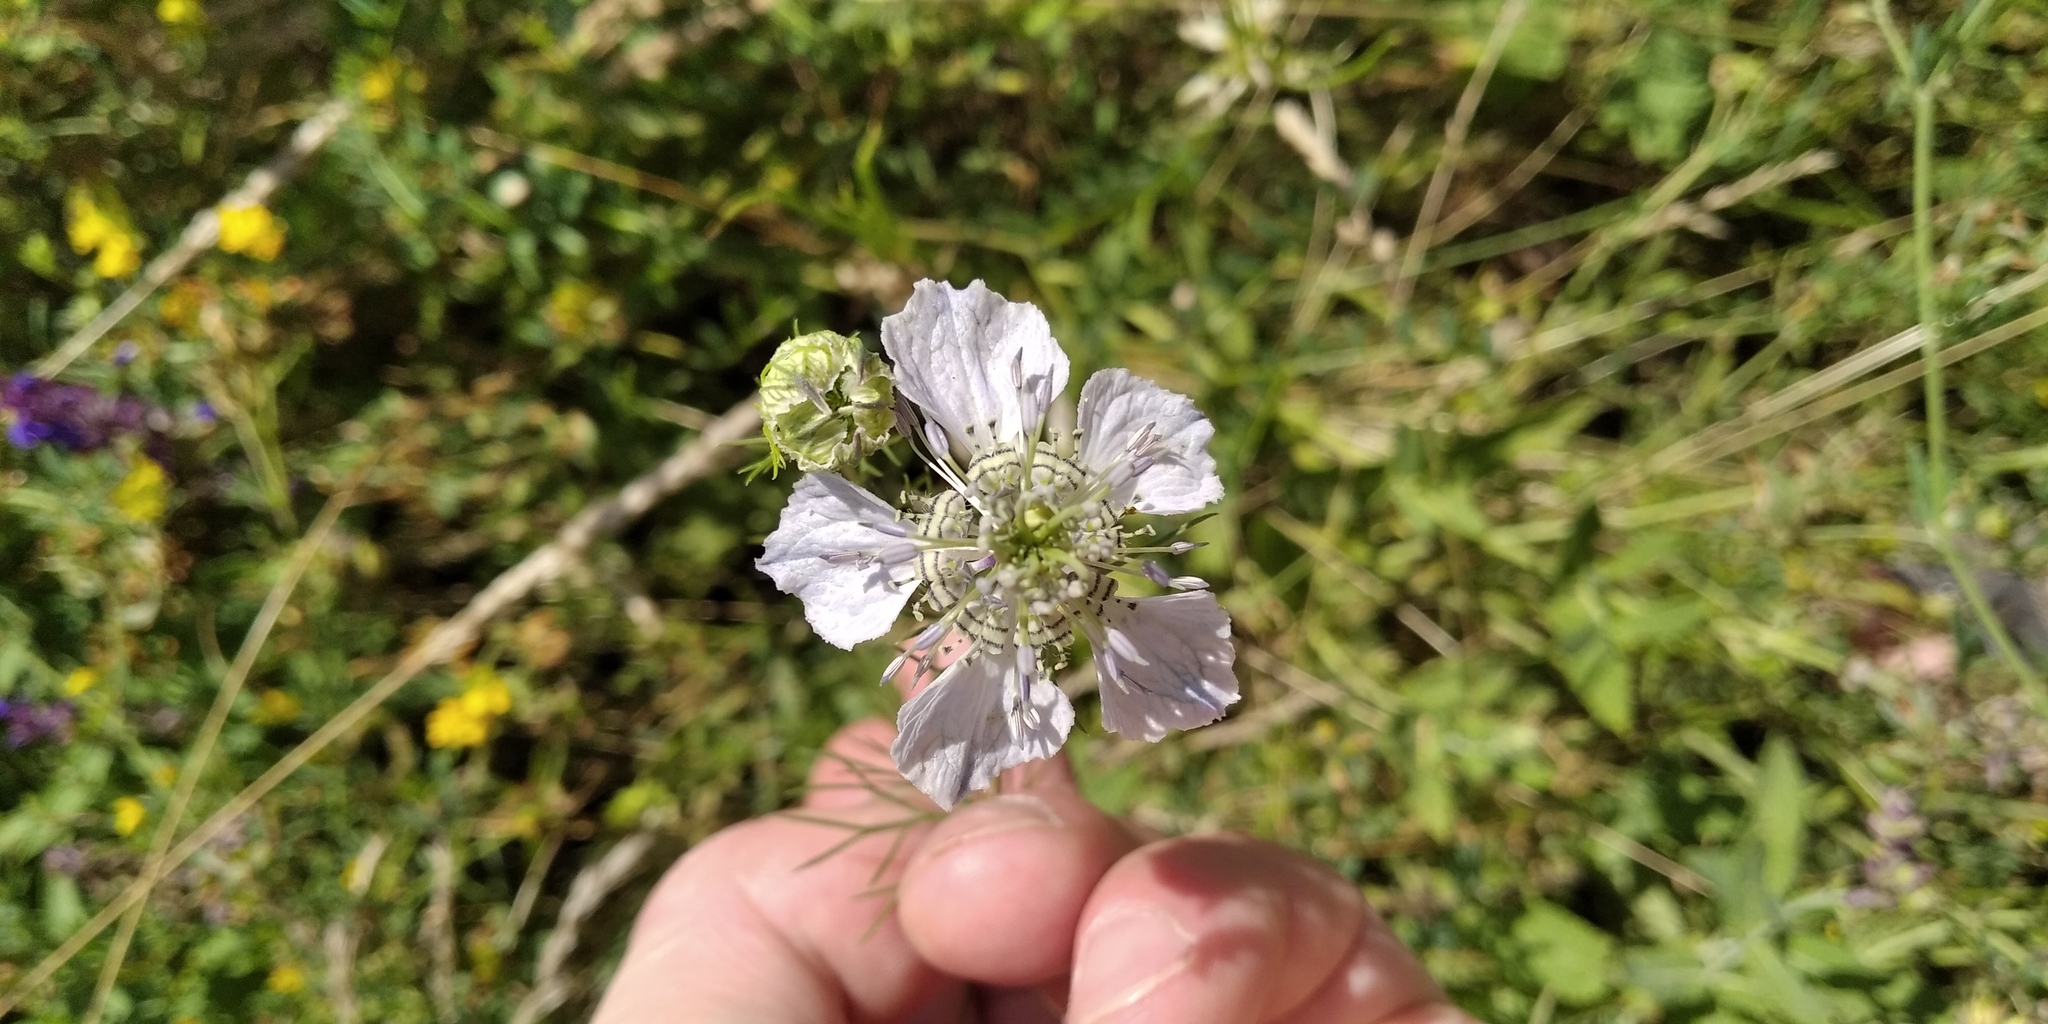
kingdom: Plantae
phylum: Tracheophyta
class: Magnoliopsida
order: Ranunculales
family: Ranunculaceae
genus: Nigella
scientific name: Nigella arvensis
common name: Wild fennel-flower
